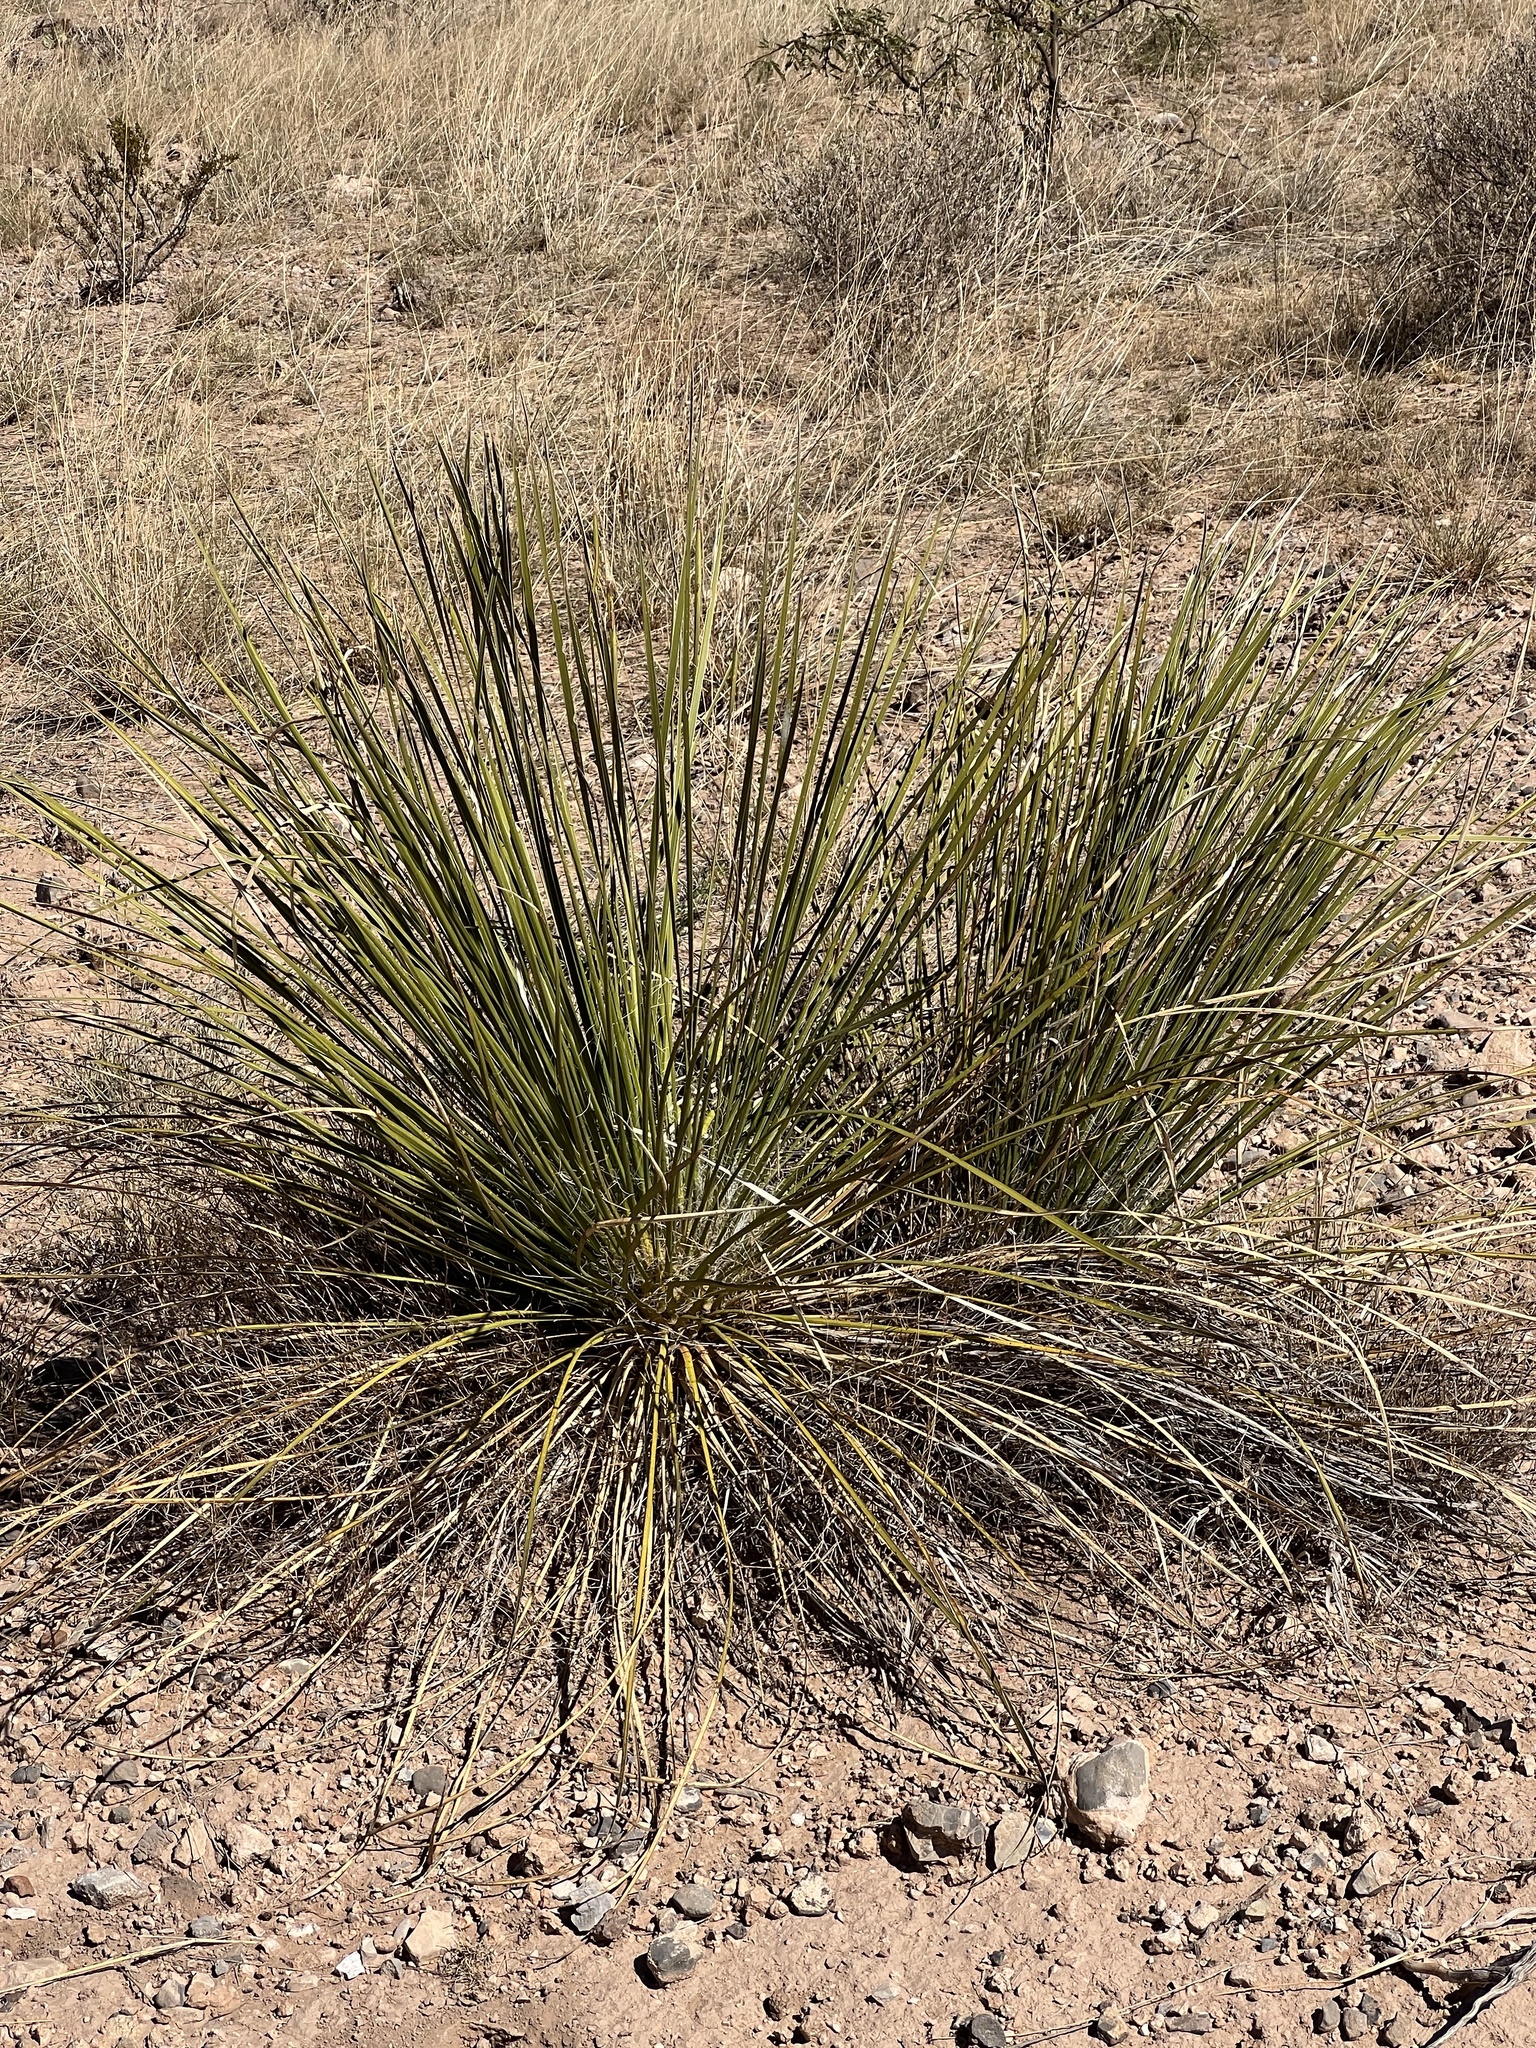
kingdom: Plantae
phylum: Tracheophyta
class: Liliopsida
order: Asparagales
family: Asparagaceae
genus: Yucca
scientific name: Yucca elata
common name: Palmella
